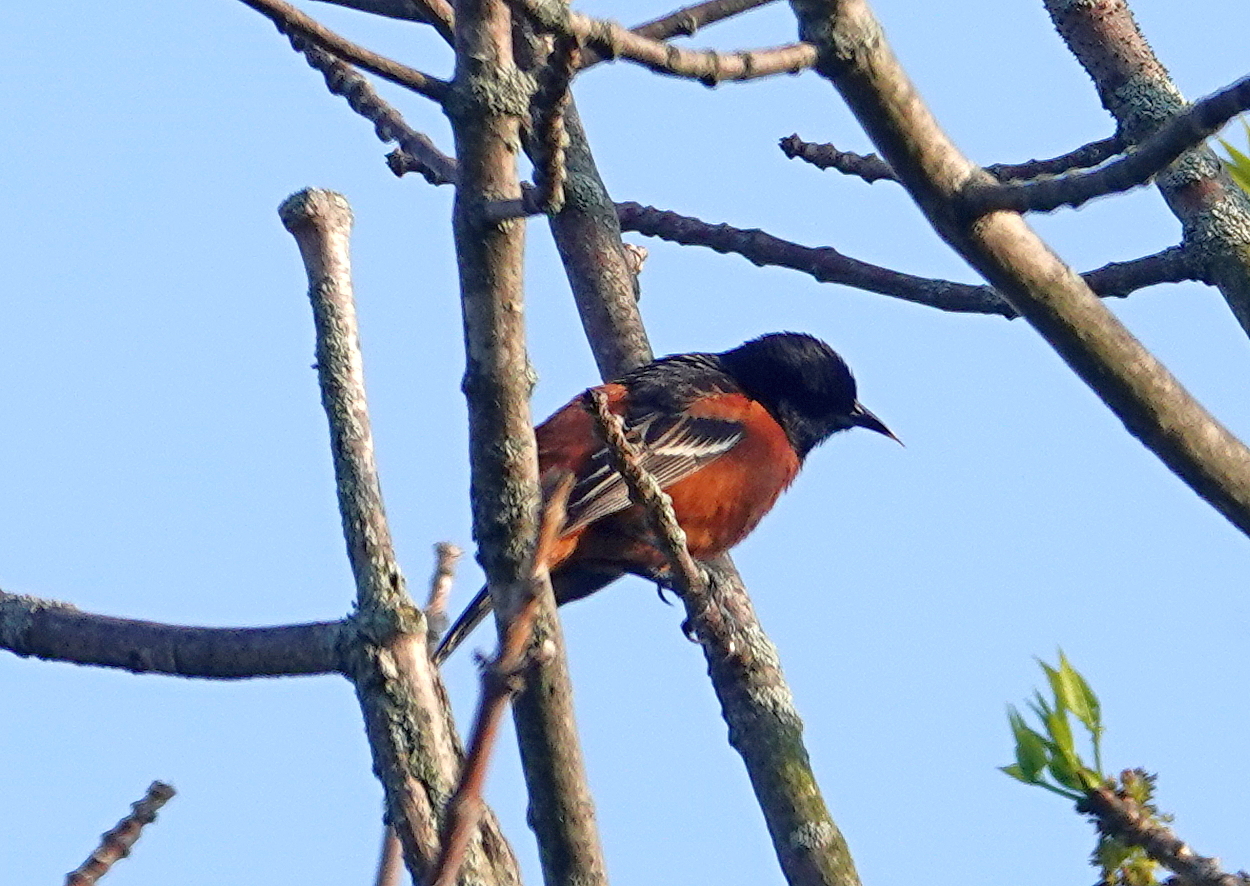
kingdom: Animalia
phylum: Chordata
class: Aves
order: Passeriformes
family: Icteridae
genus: Icterus
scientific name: Icterus spurius
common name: Orchard oriole
